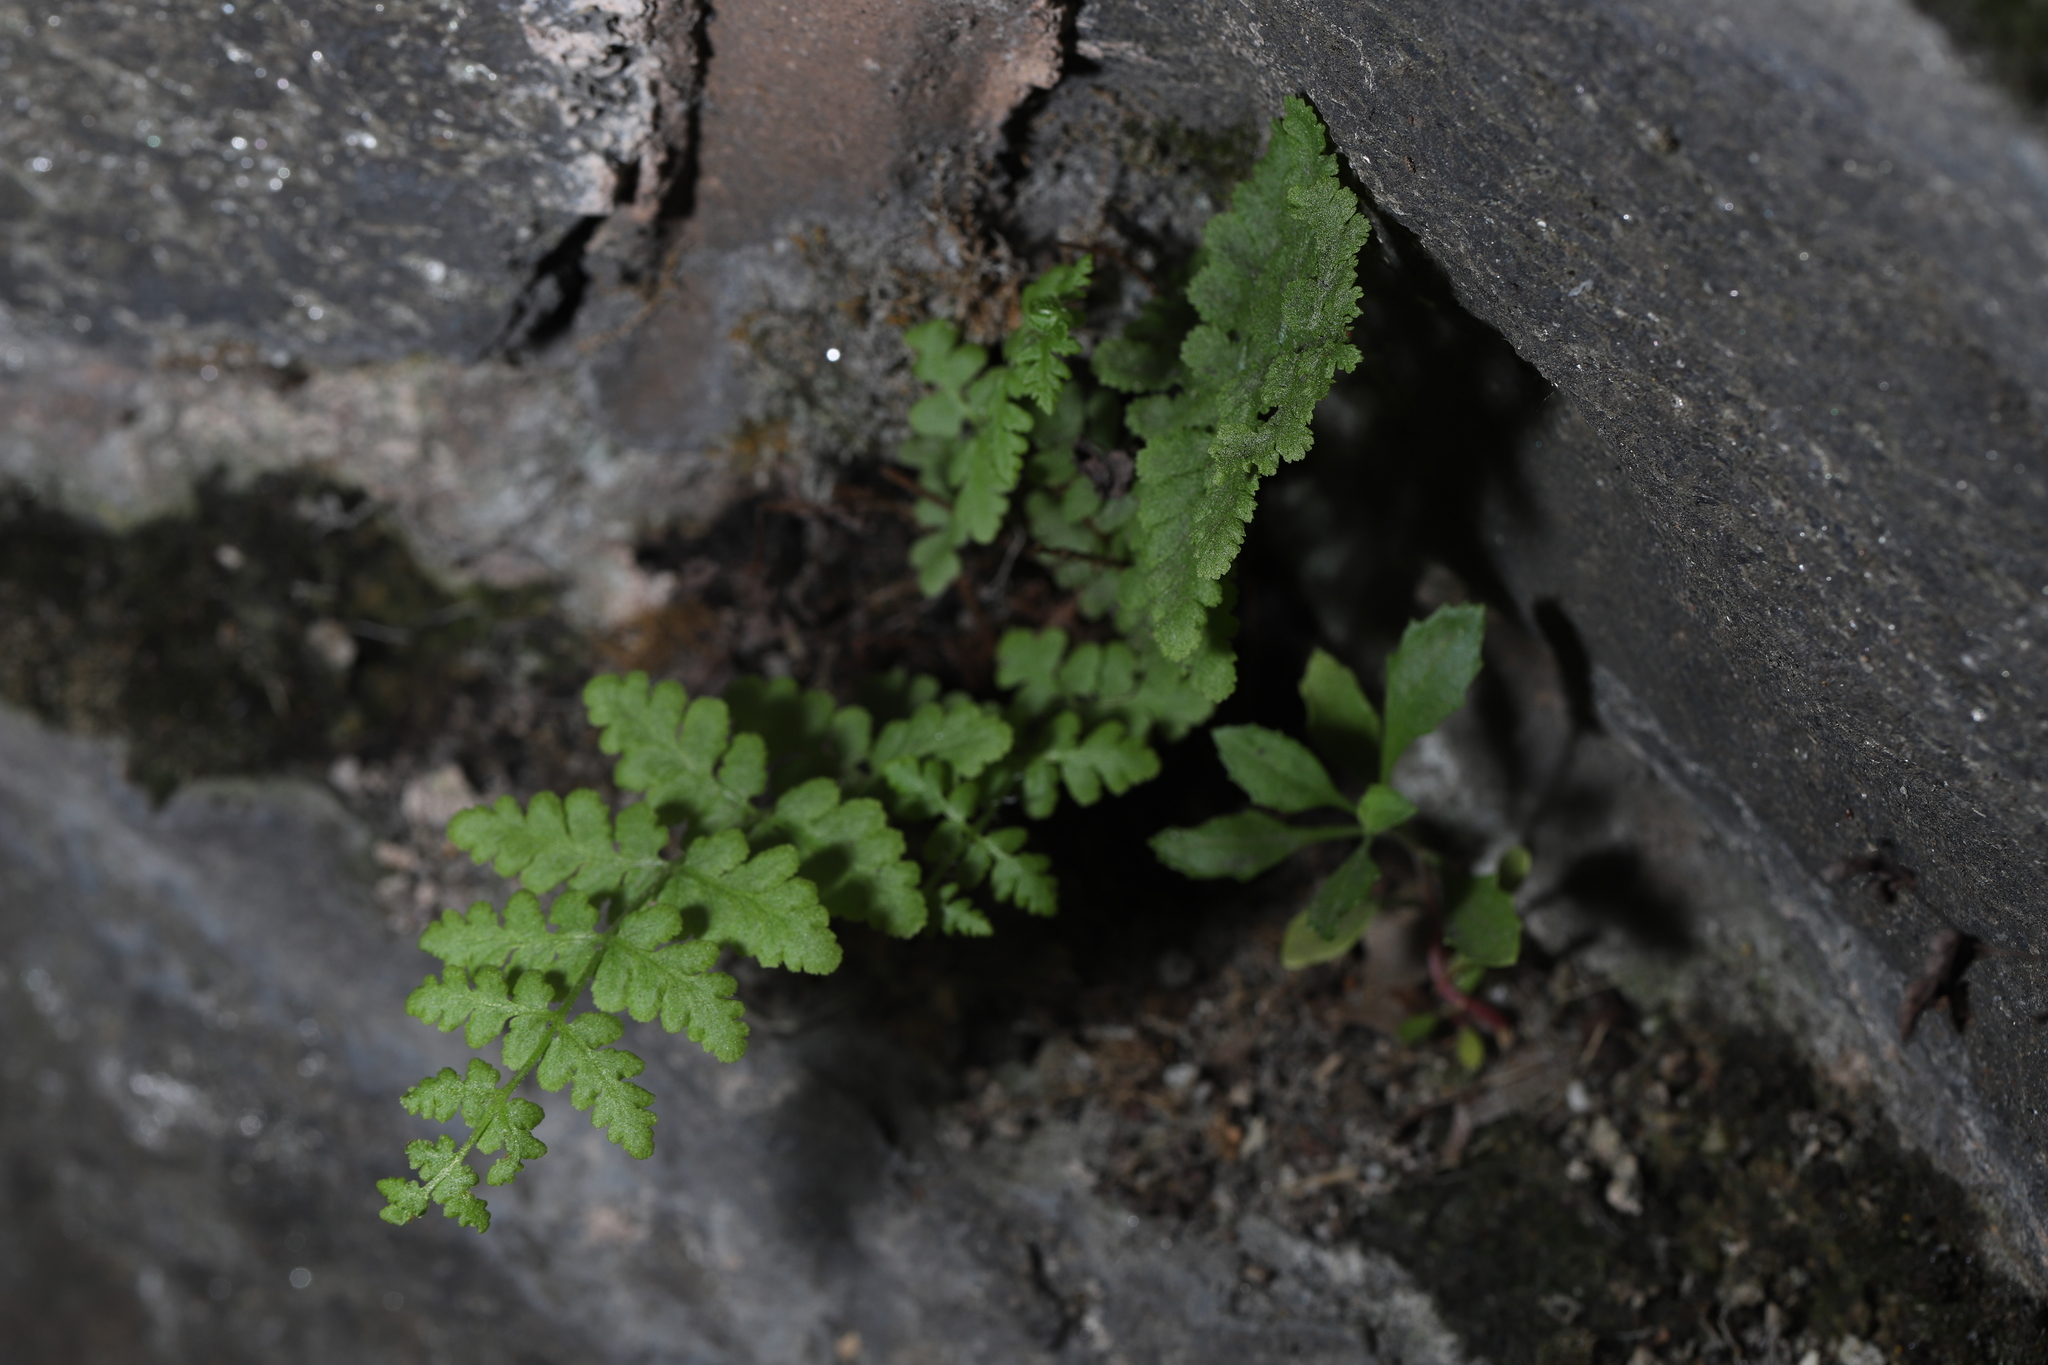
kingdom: Plantae
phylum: Tracheophyta
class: Polypodiopsida
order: Polypodiales
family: Woodsiaceae
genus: Physematium
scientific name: Physematium obtusum
